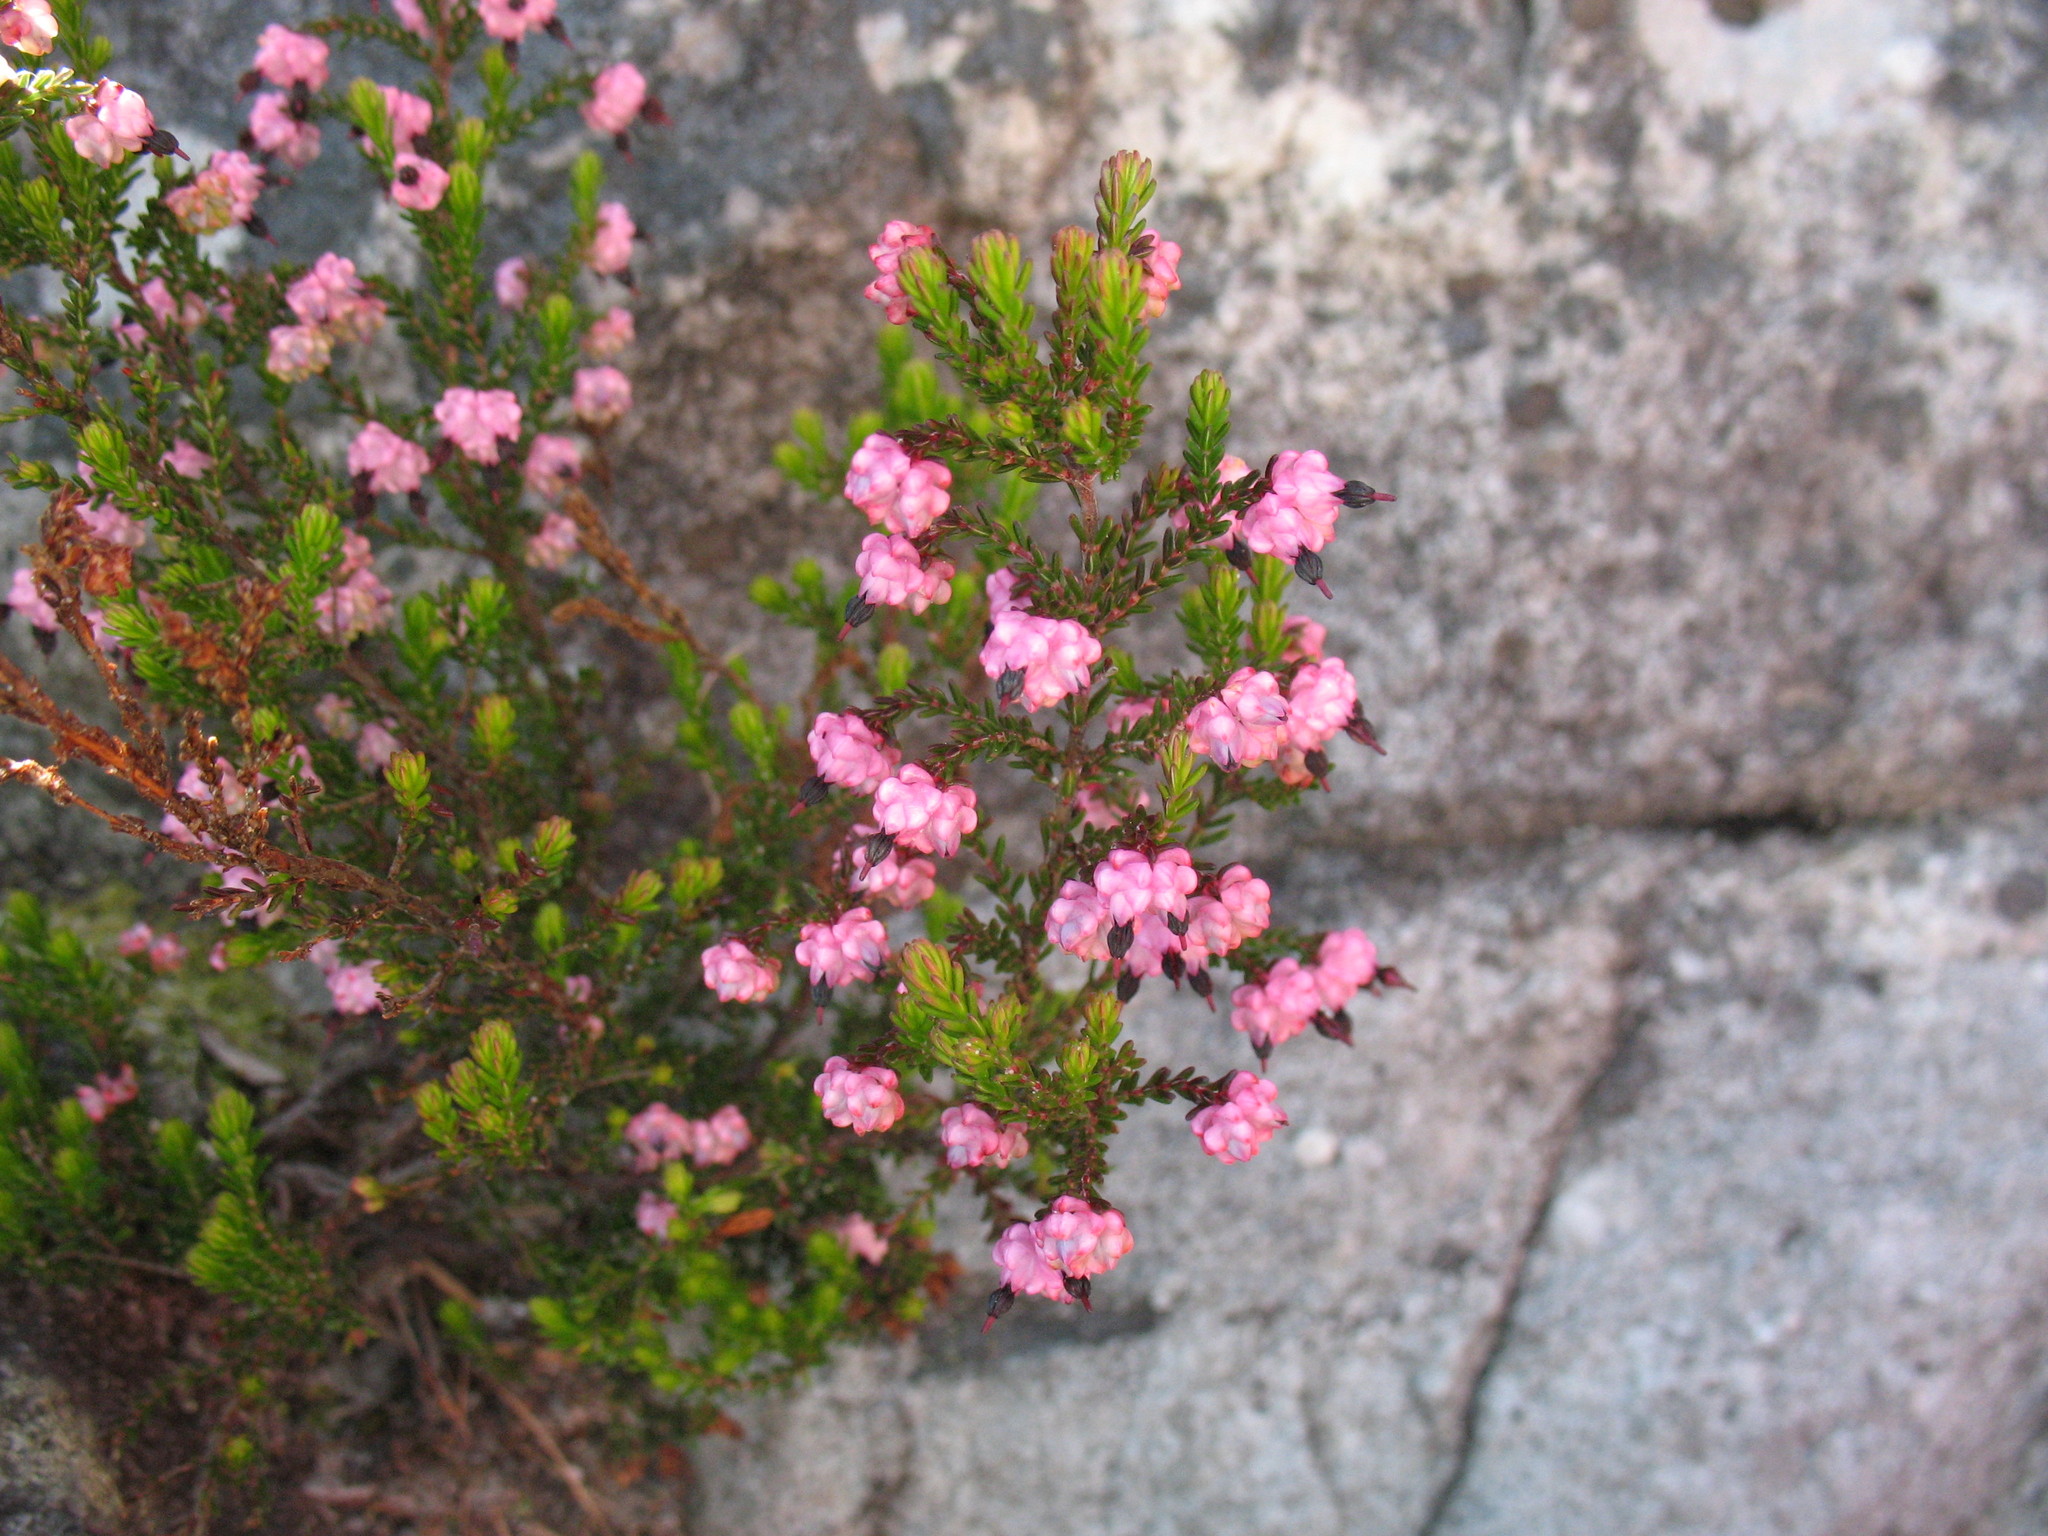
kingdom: Plantae
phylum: Tracheophyta
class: Magnoliopsida
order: Ericales
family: Ericaceae
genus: Erica
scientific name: Erica spumosa
